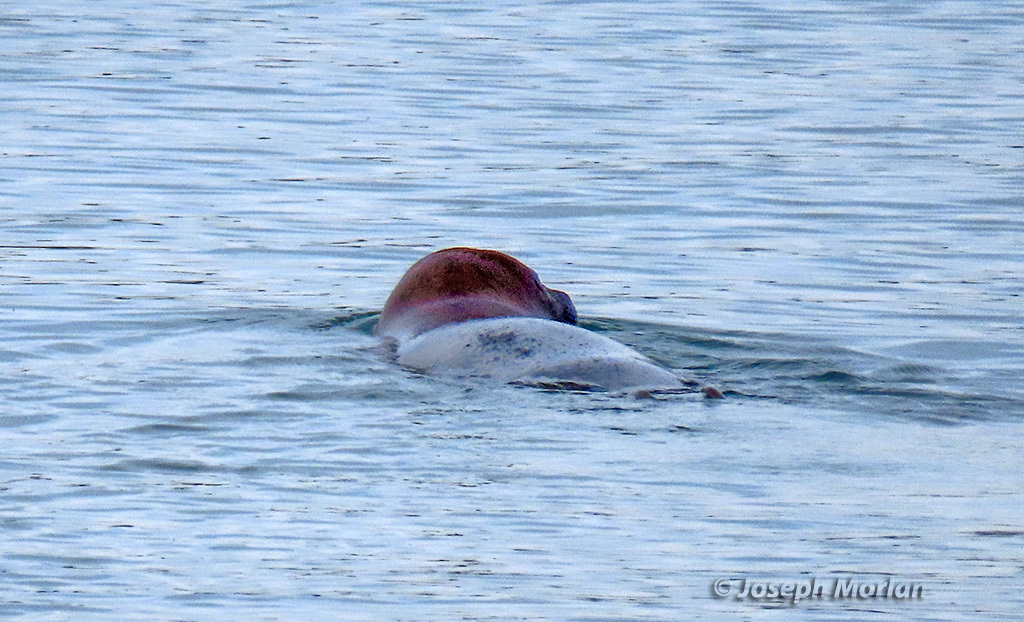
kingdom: Animalia
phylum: Chordata
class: Mammalia
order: Carnivora
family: Phocidae
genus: Phoca
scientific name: Phoca vitulina
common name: Harbor seal
